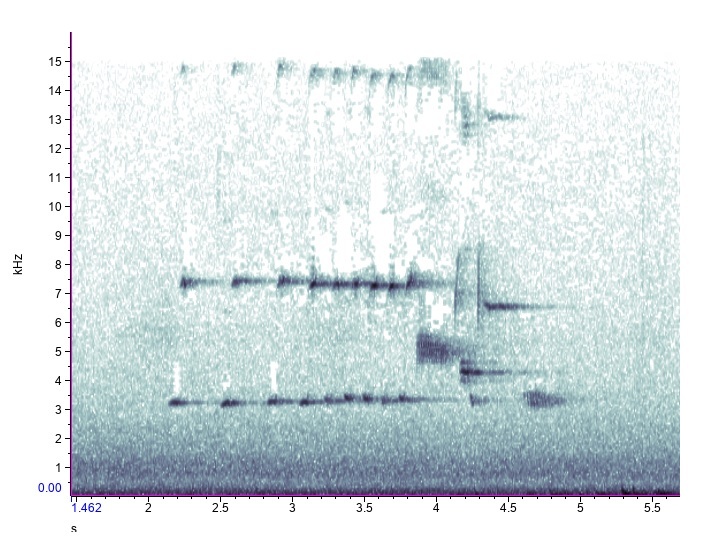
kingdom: Animalia
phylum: Chordata
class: Aves
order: Passeriformes
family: Passerellidae
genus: Melospiza
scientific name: Melospiza melodia
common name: Song sparrow
